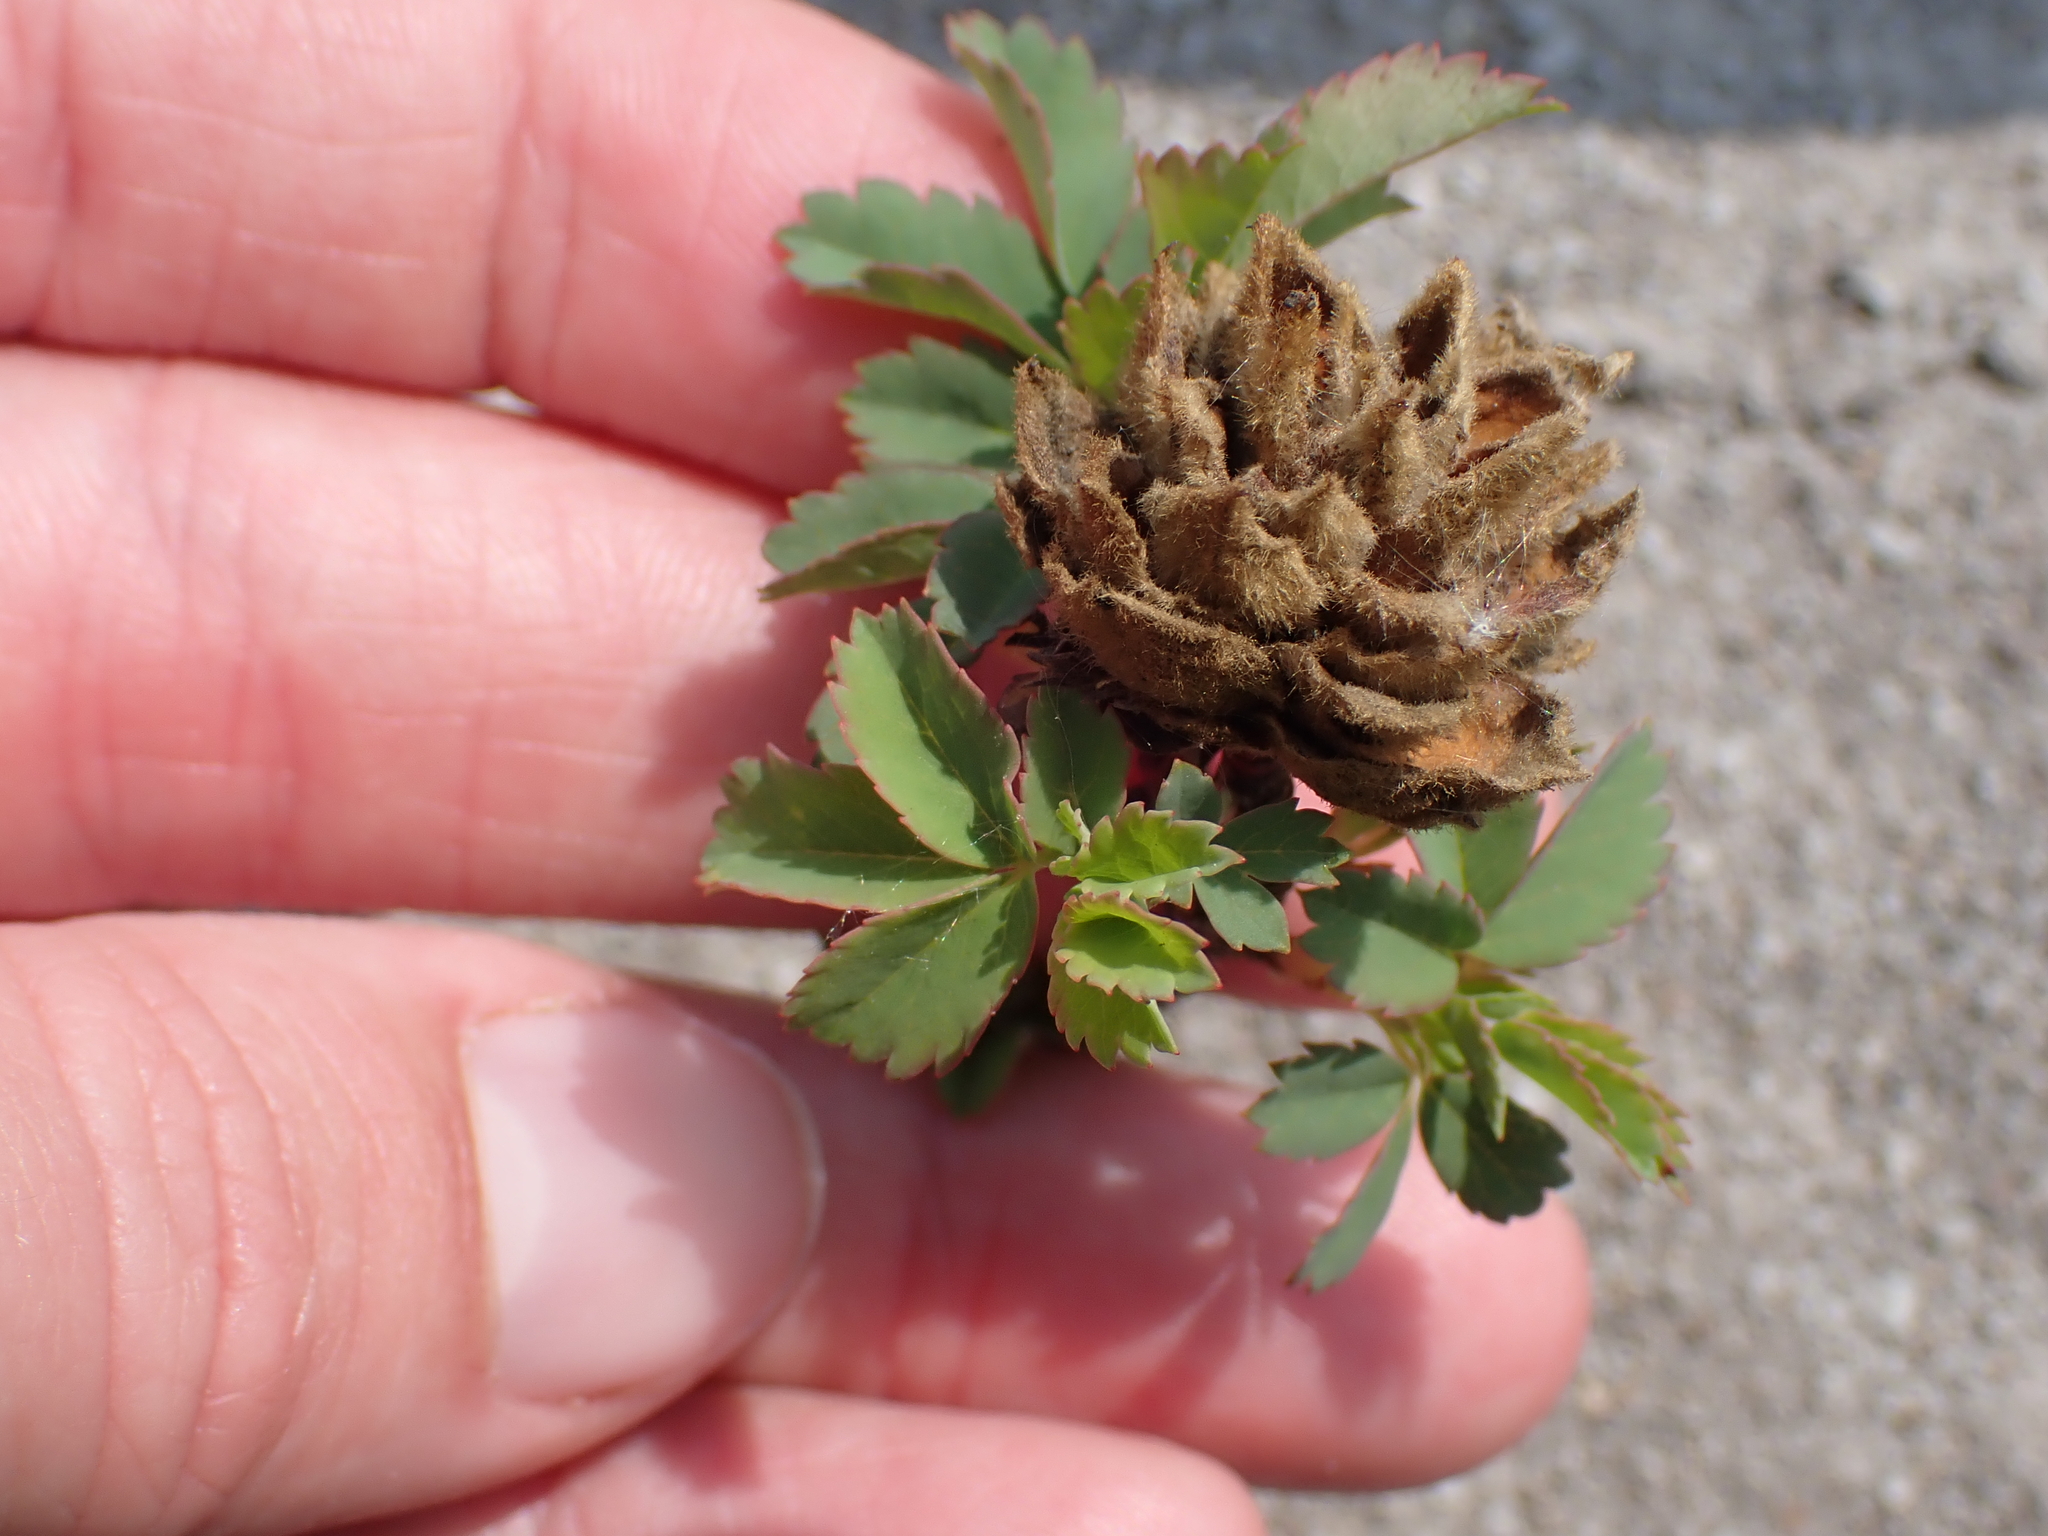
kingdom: Animalia
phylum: Arthropoda
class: Insecta
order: Diptera
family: Cecidomyiidae
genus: Rabdophaga
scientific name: Rabdophaga rosacea
